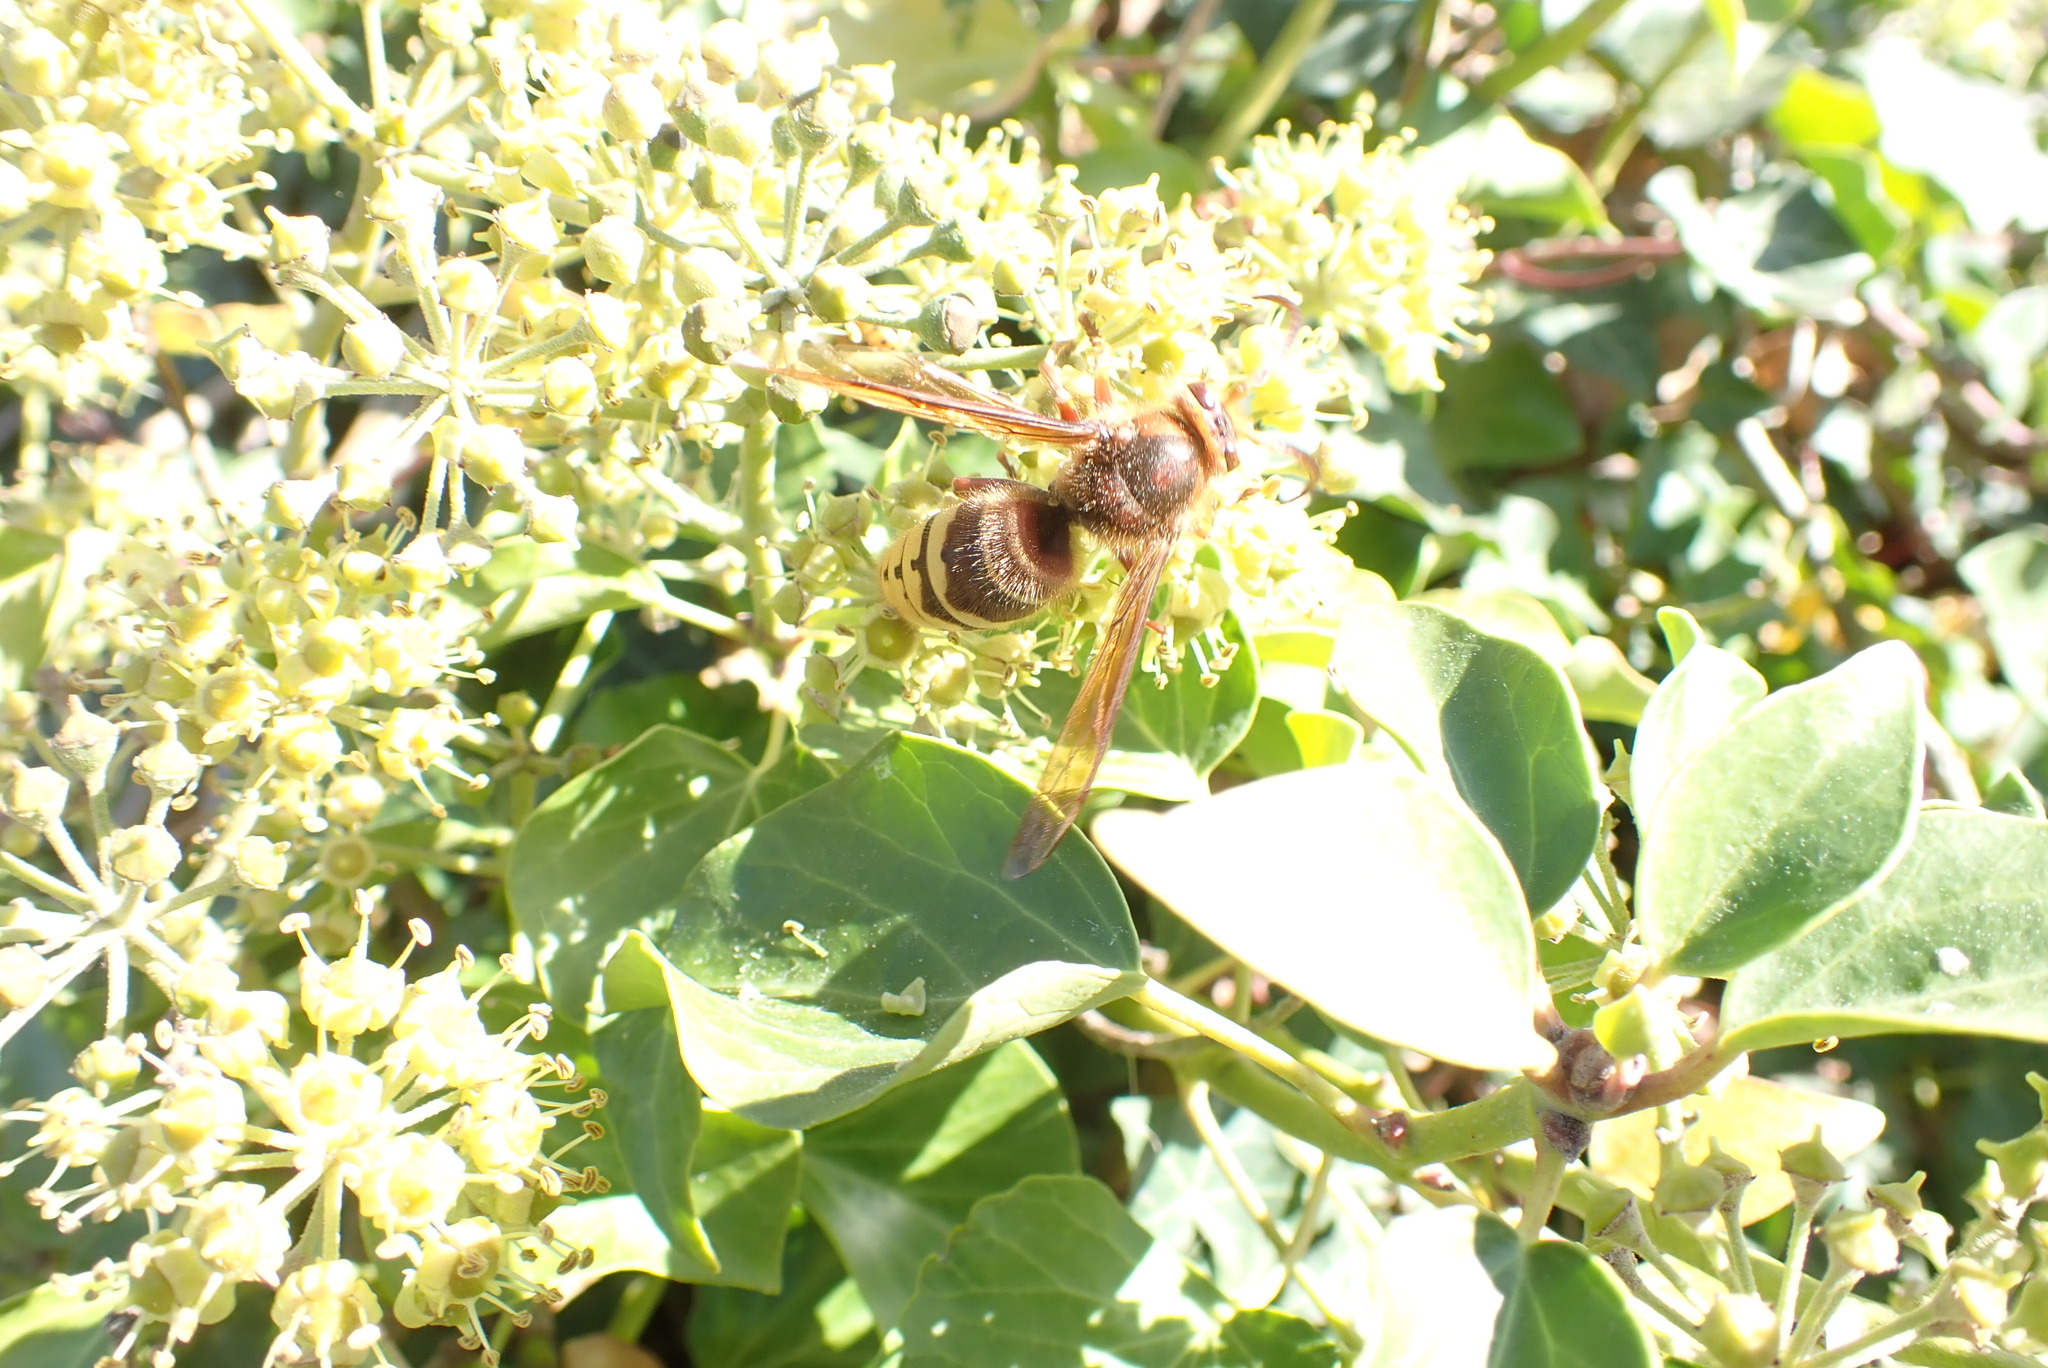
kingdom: Animalia
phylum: Arthropoda
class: Insecta
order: Hymenoptera
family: Vespidae
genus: Vespa
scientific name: Vespa velutina
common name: Asian hornet
